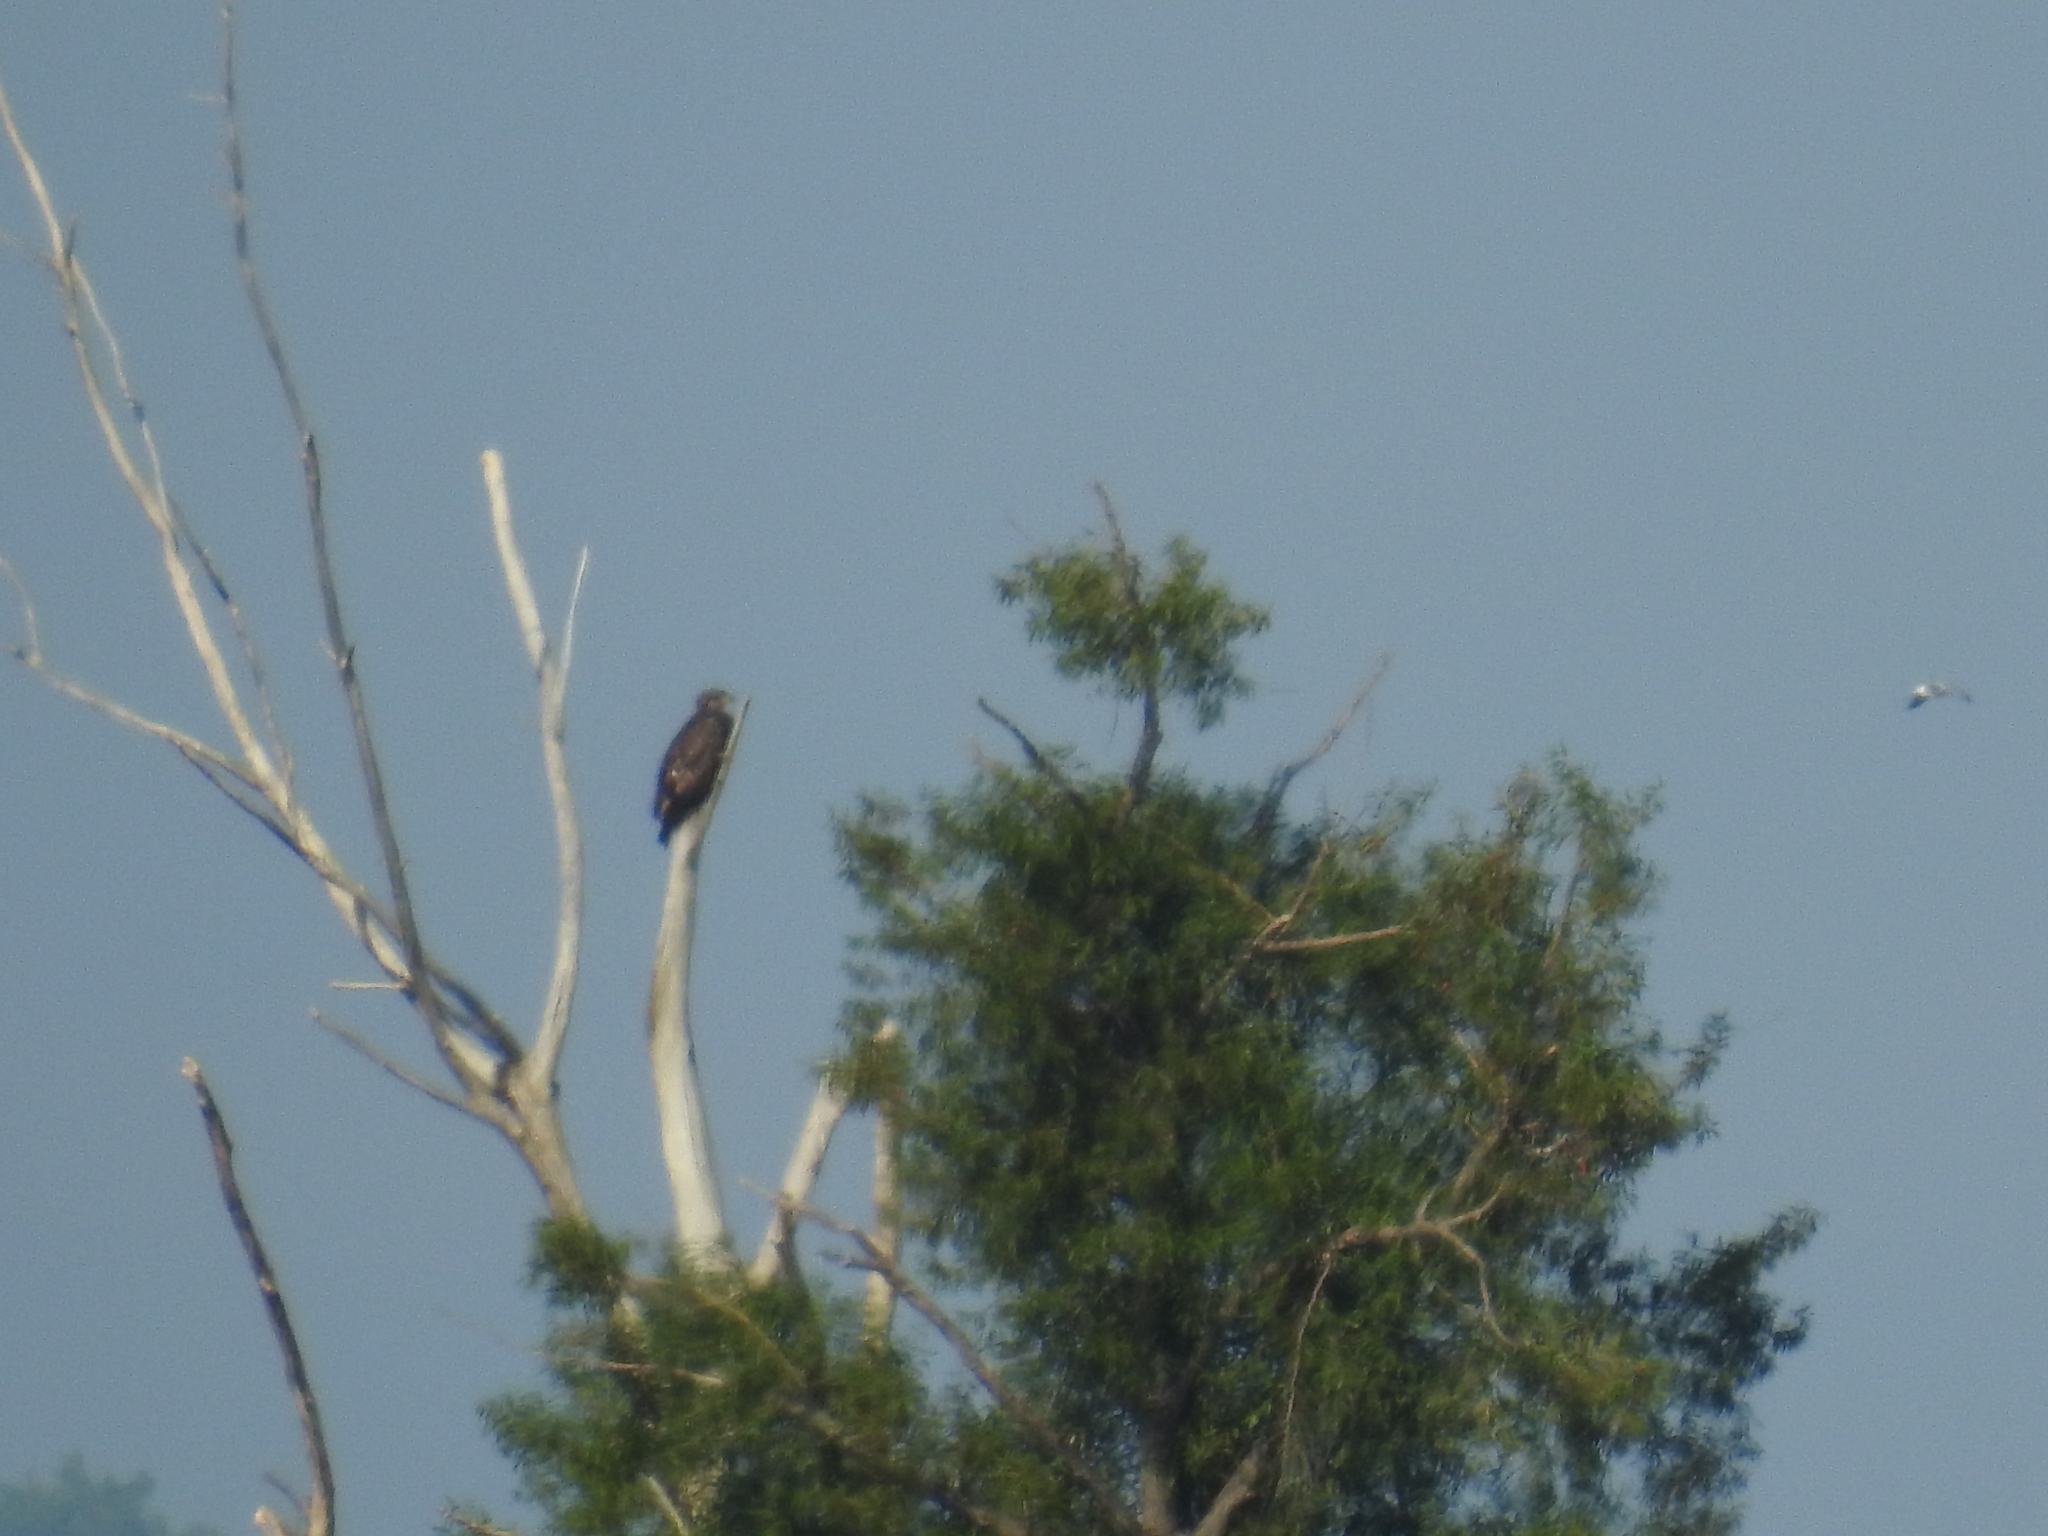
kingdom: Animalia
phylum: Chordata
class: Aves
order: Accipitriformes
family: Accipitridae
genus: Haliaeetus
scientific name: Haliaeetus leucocephalus
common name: Bald eagle
